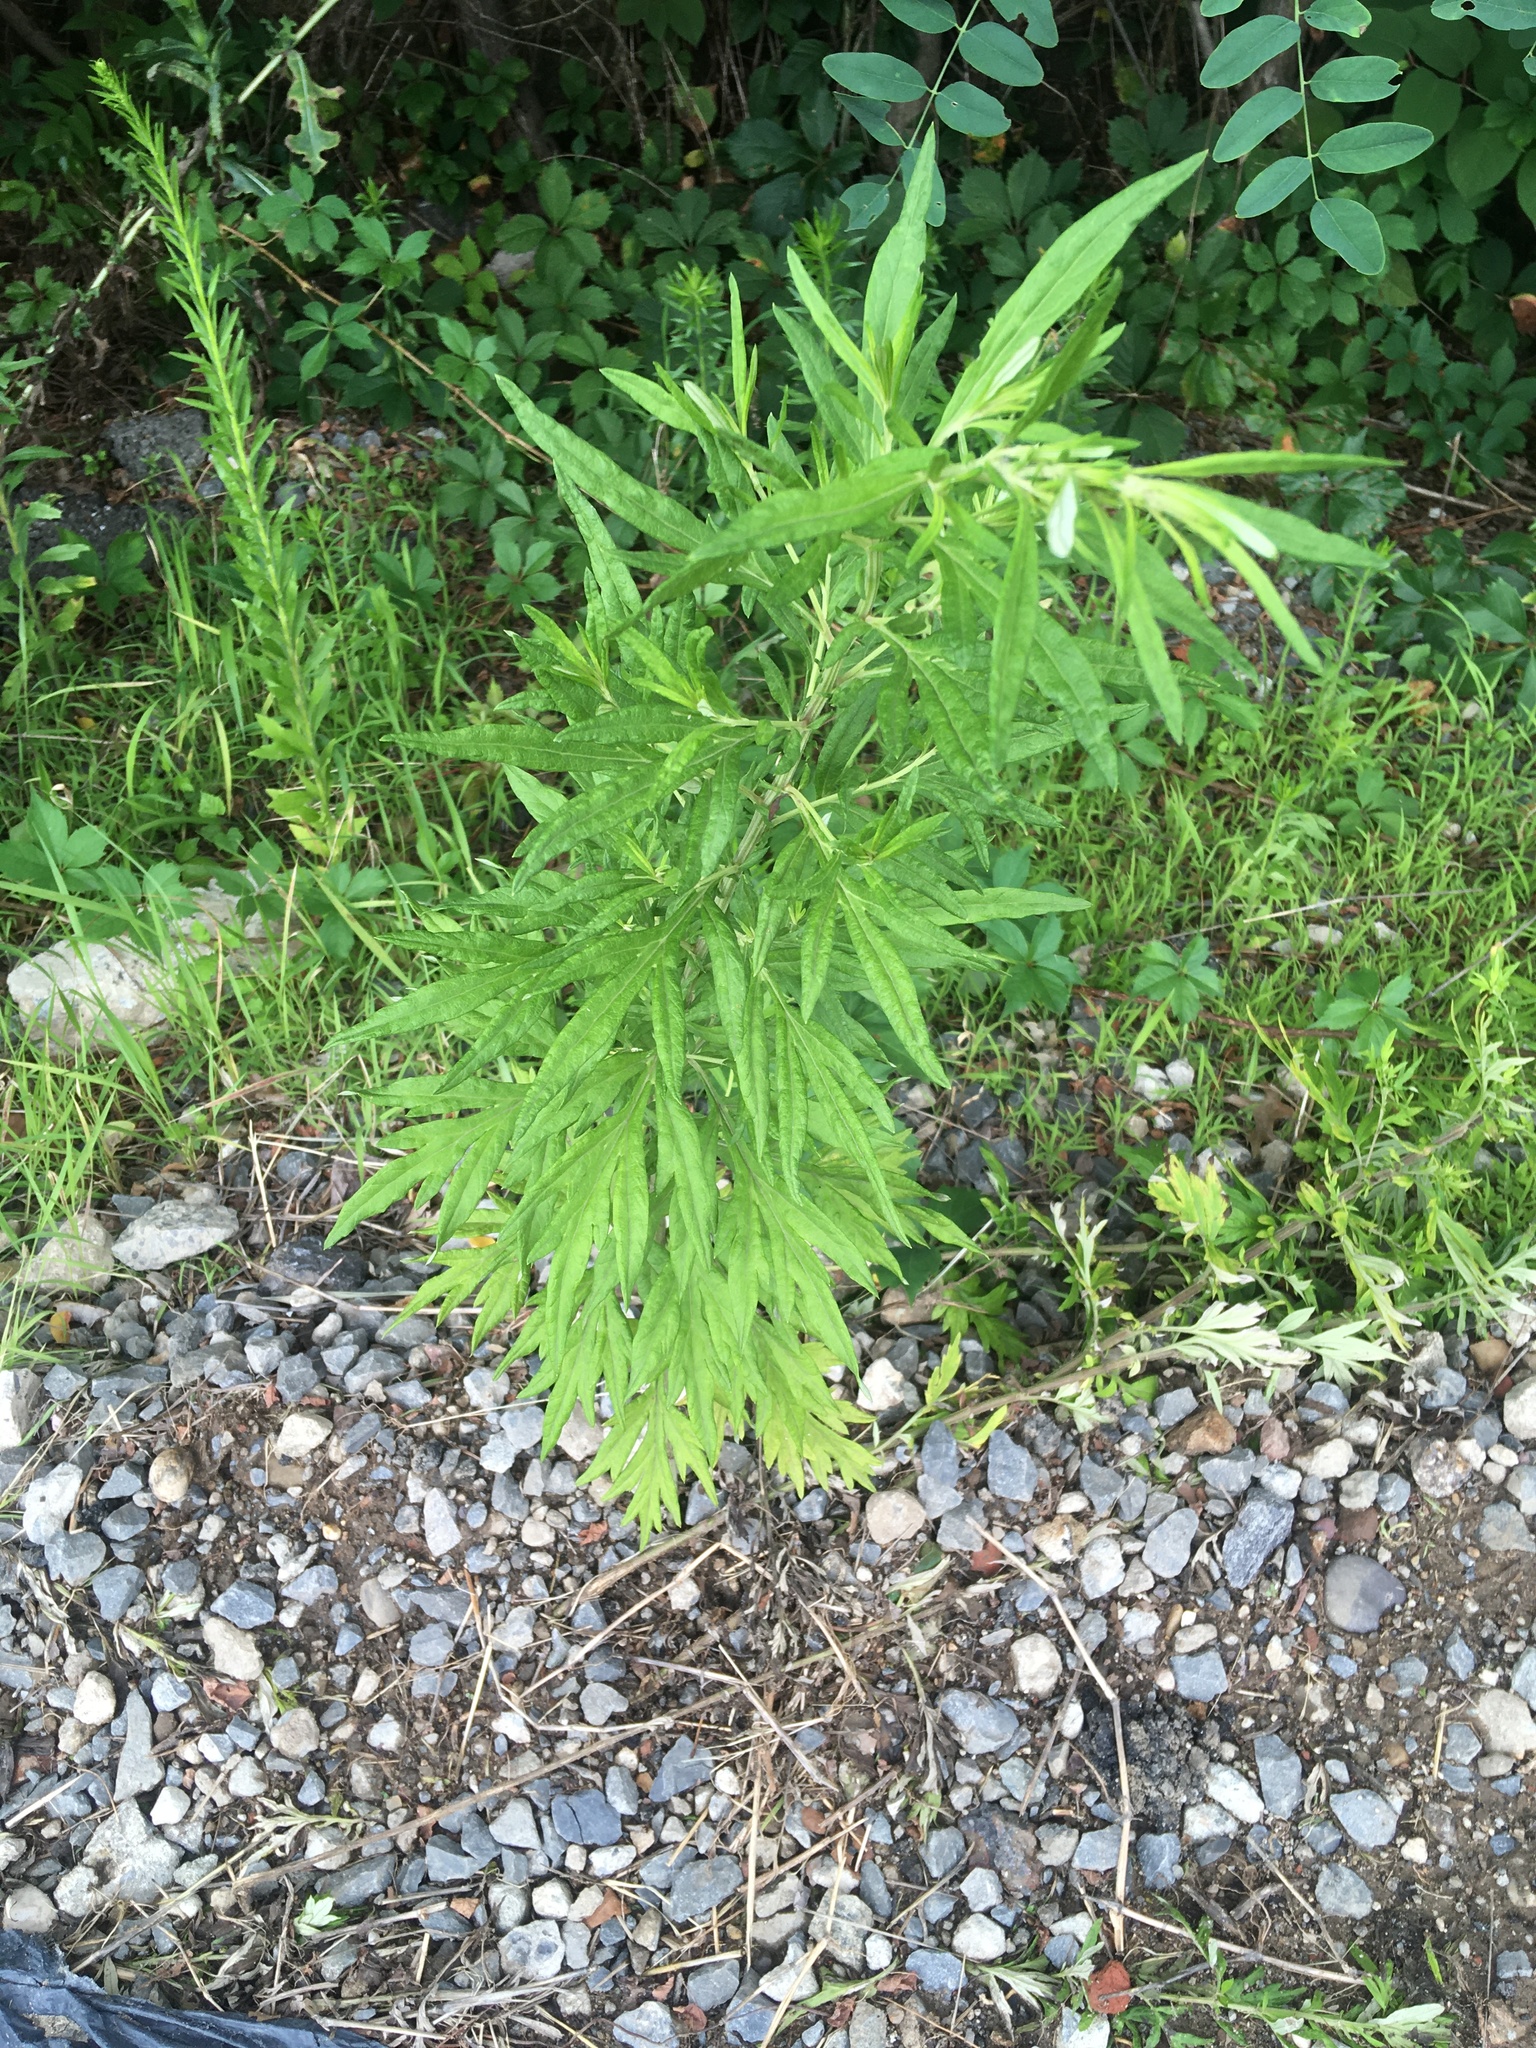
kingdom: Plantae
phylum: Tracheophyta
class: Magnoliopsida
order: Asterales
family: Asteraceae
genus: Artemisia
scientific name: Artemisia vulgaris
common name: Mugwort
